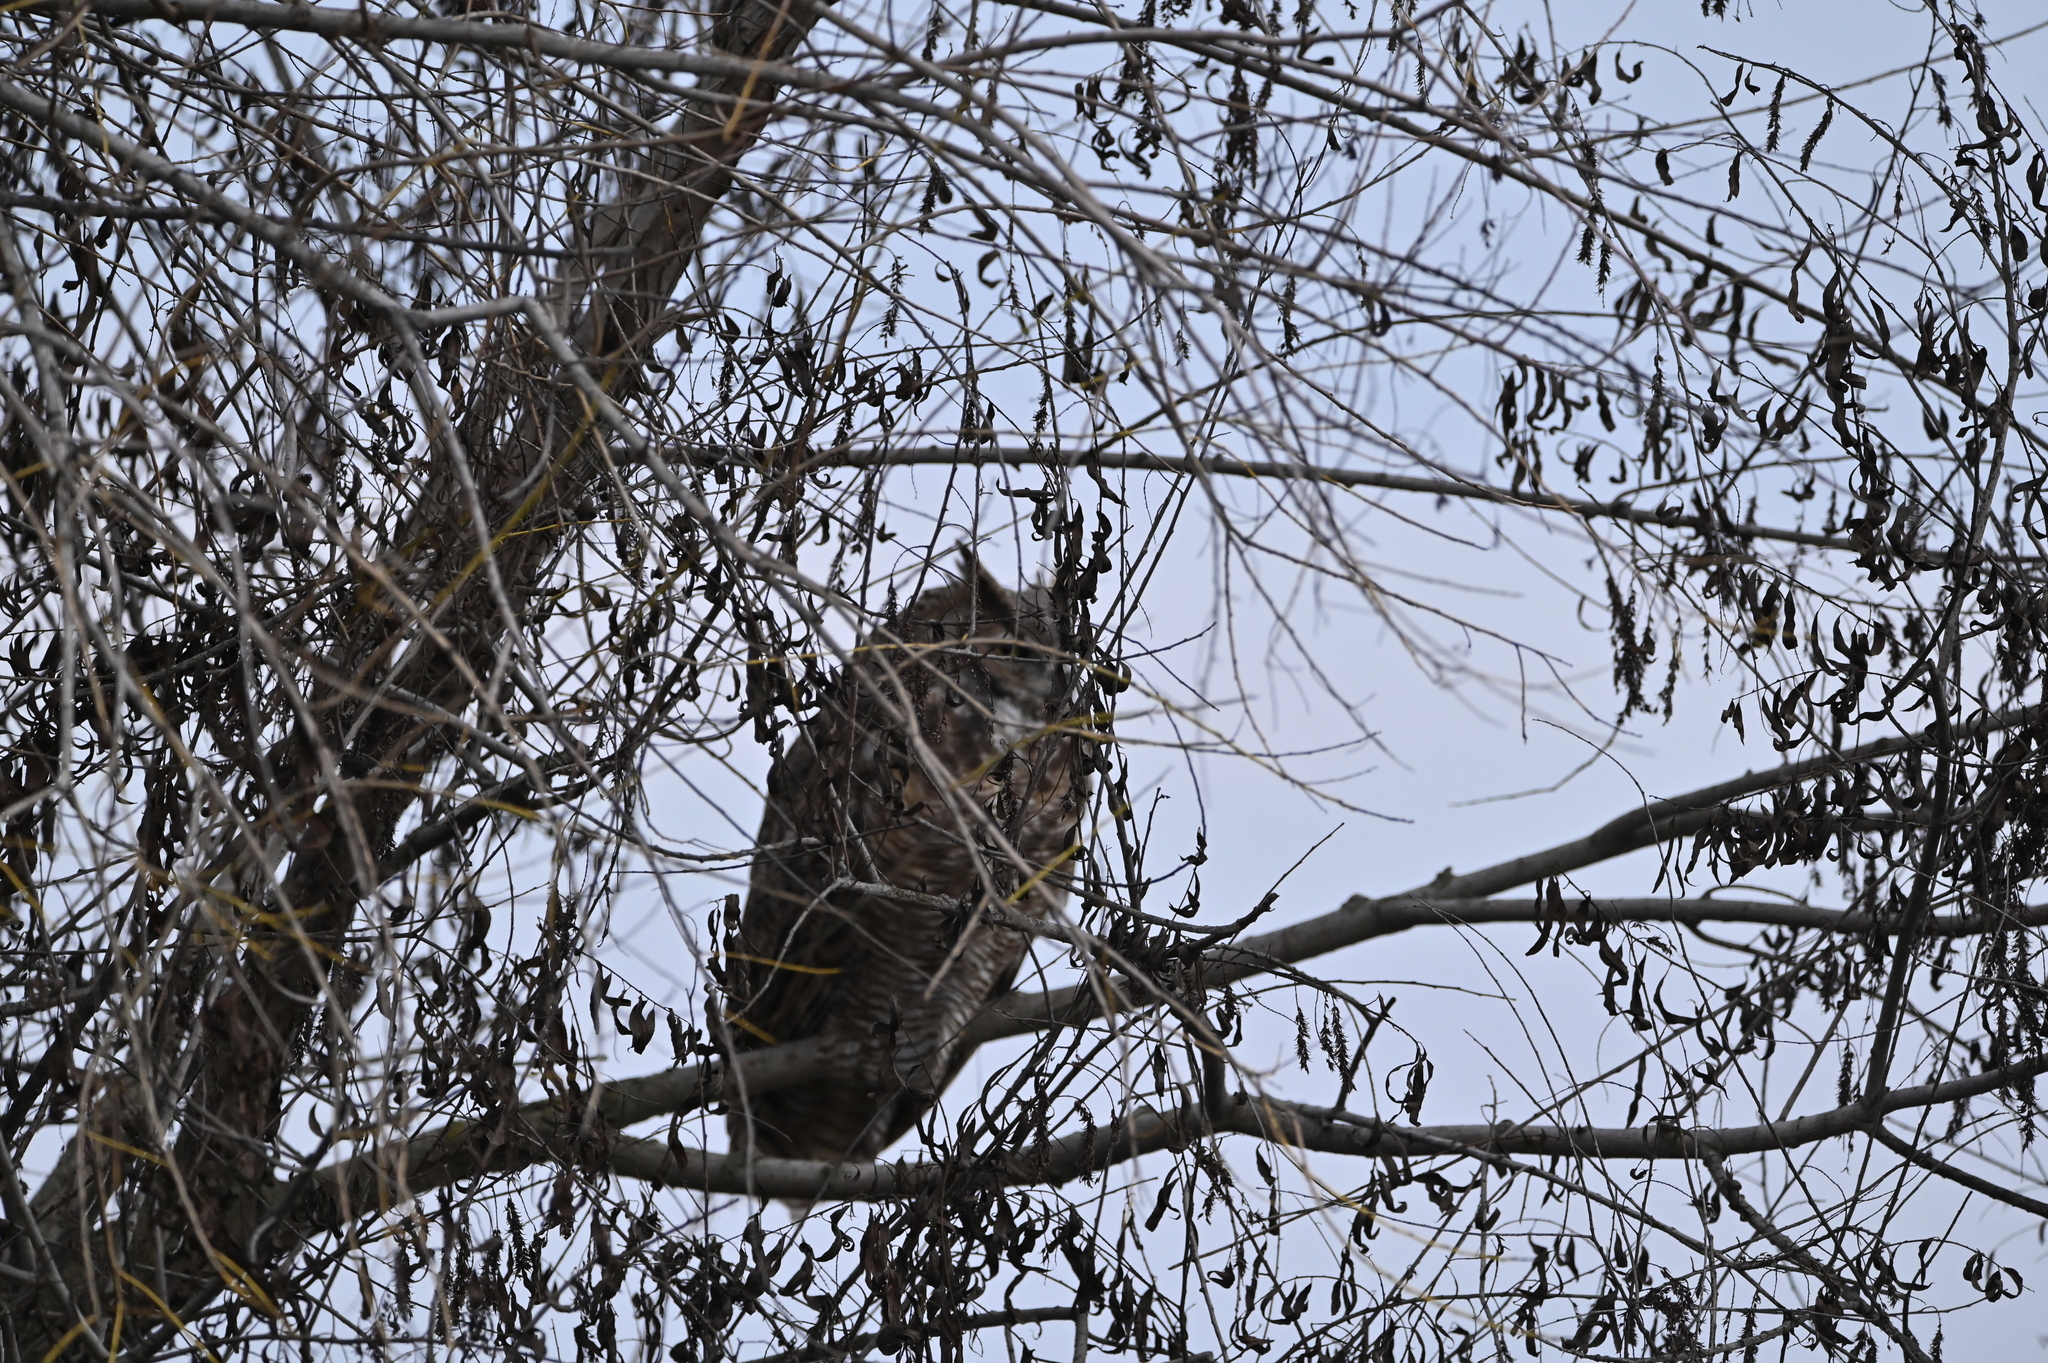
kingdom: Animalia
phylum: Chordata
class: Aves
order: Strigiformes
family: Strigidae
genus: Bubo
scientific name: Bubo virginianus
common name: Great horned owl
